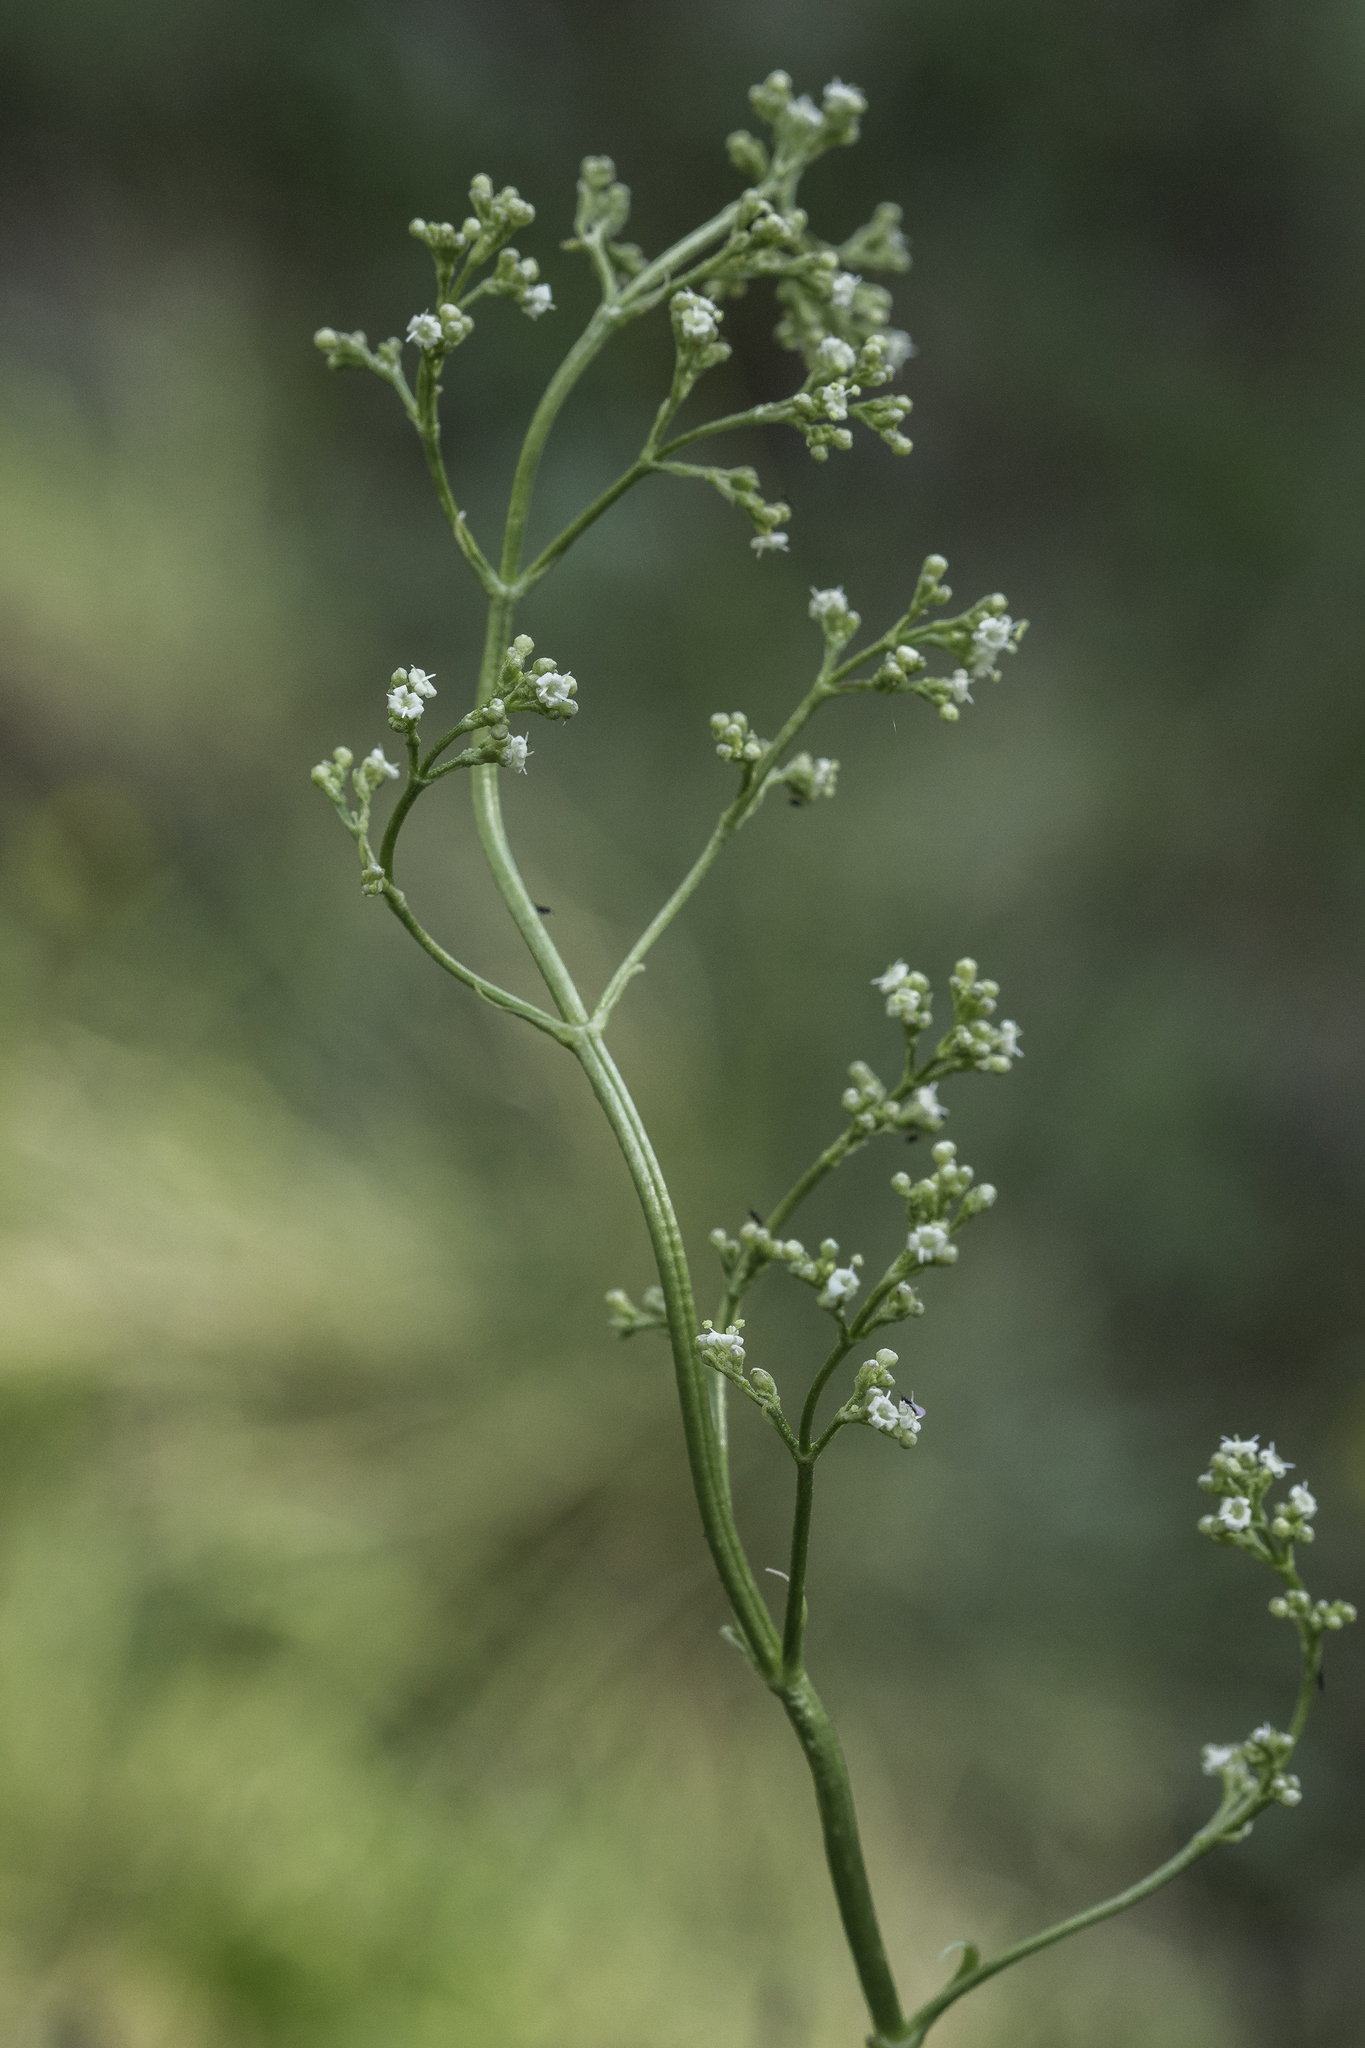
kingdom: Plantae
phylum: Tracheophyta
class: Magnoliopsida
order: Dipsacales
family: Caprifoliaceae
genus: Valeriana
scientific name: Valeriana edulis
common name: Taproot valerian
